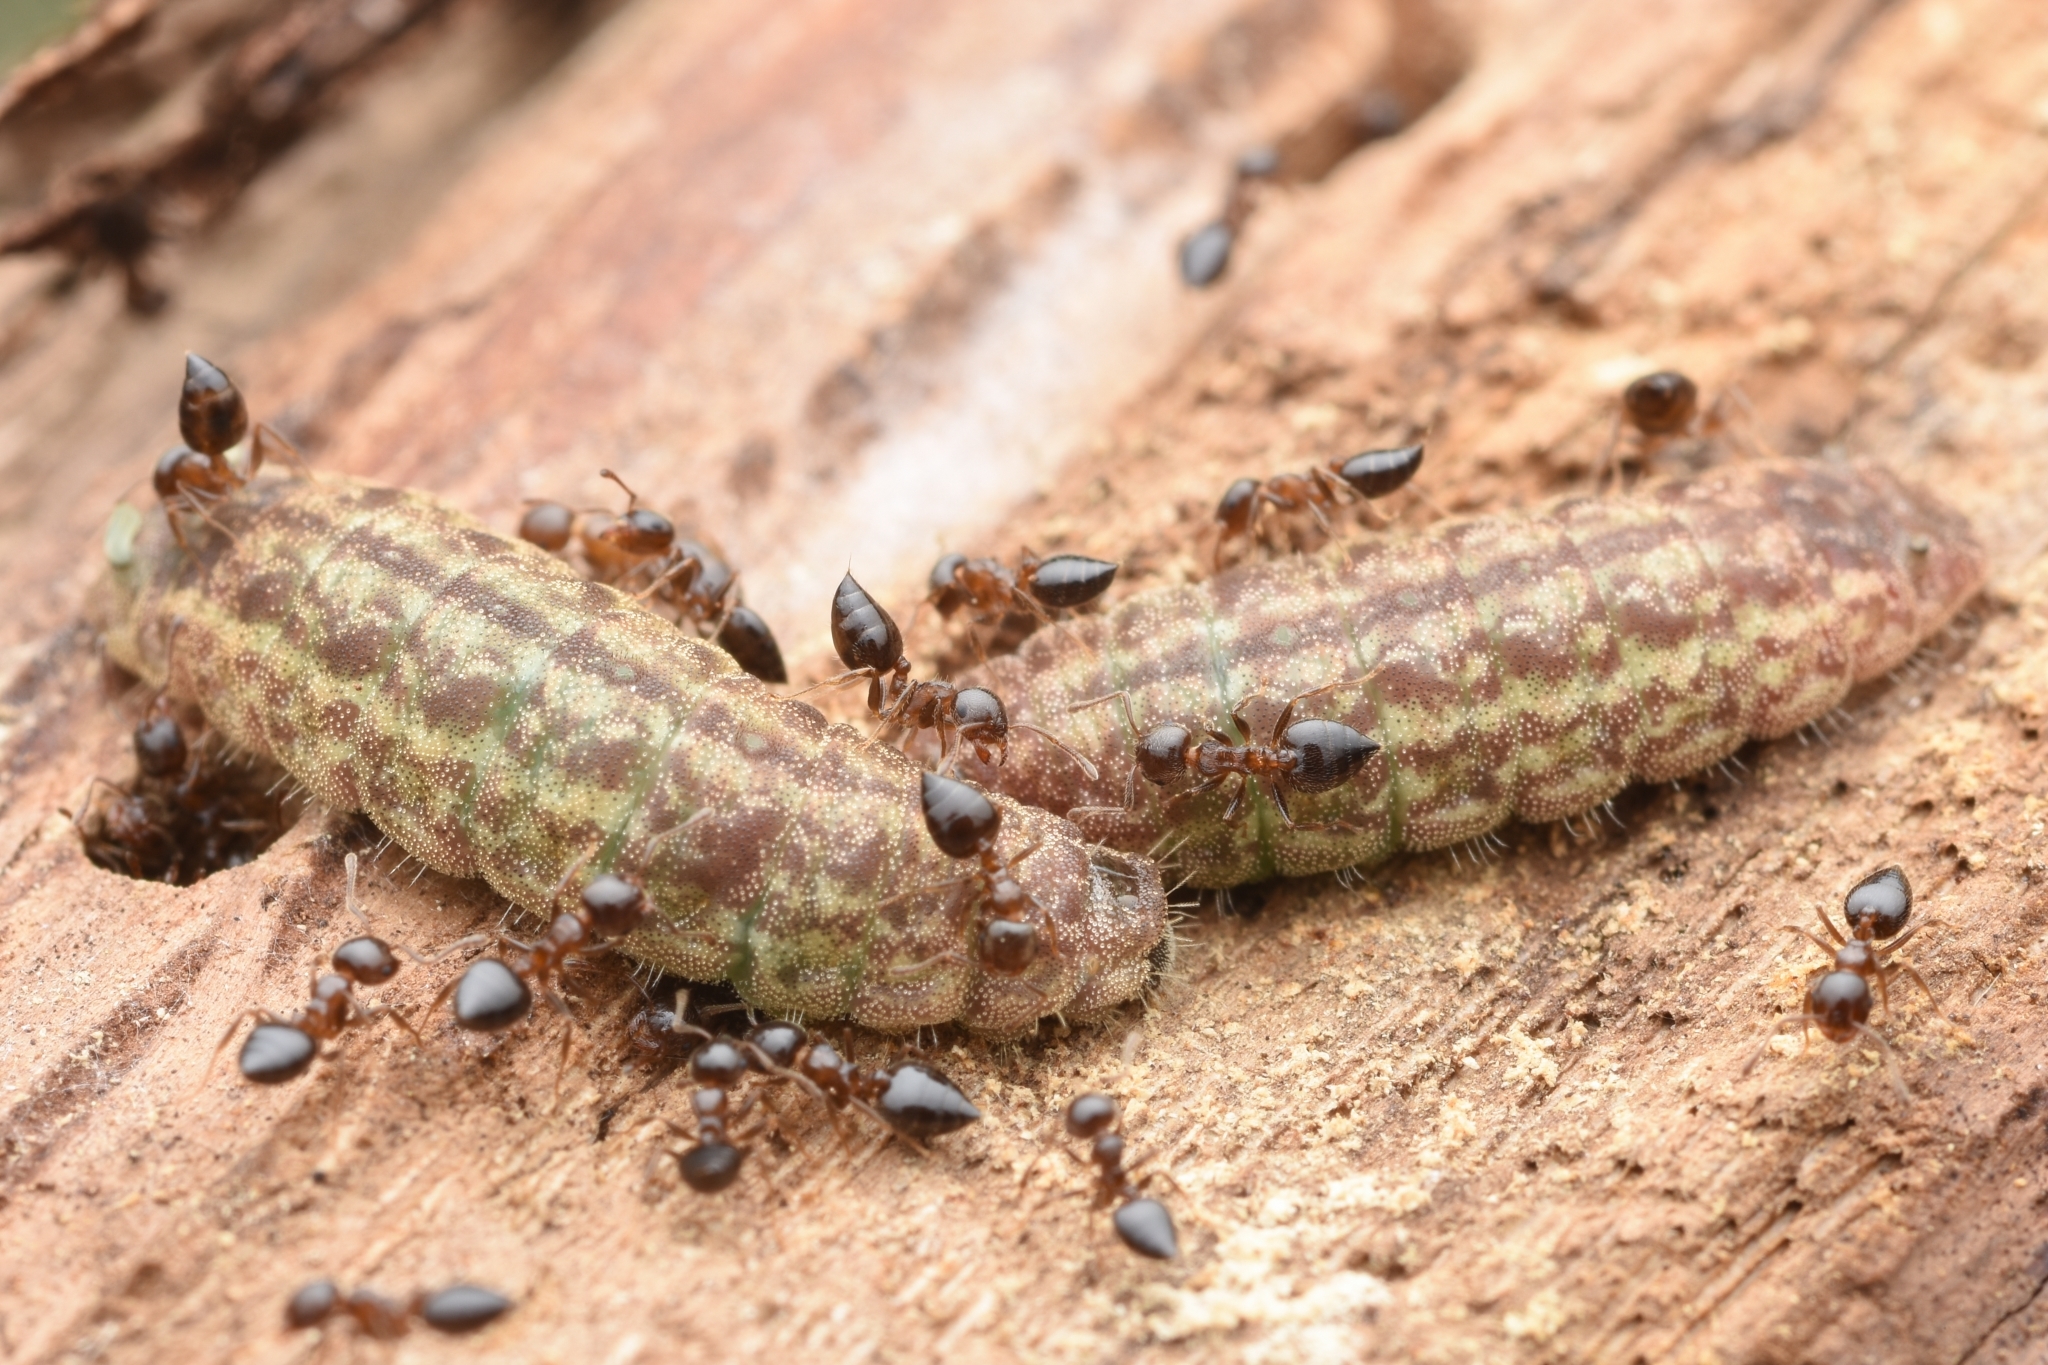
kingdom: Animalia
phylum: Arthropoda
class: Insecta
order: Hymenoptera
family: Formicidae
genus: Crematogaster
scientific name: Crematogaster matsumurai
